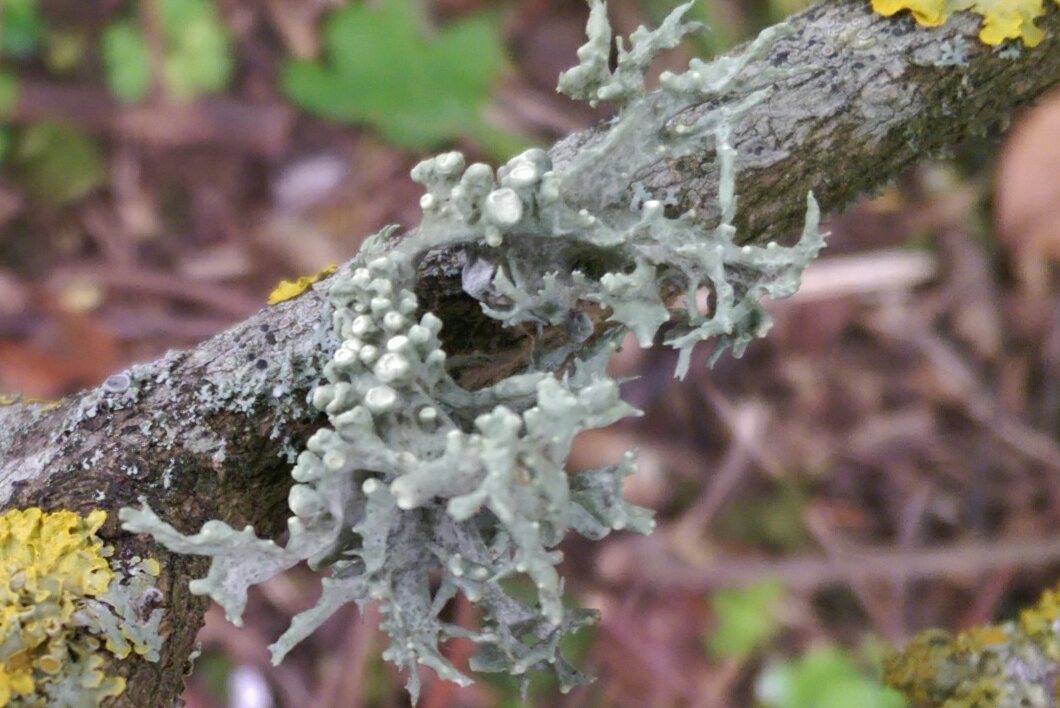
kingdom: Fungi
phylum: Ascomycota
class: Lecanoromycetes
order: Lecanorales
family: Ramalinaceae
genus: Ramalina
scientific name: Ramalina fastigiata
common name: Dotted ribbon lichen
